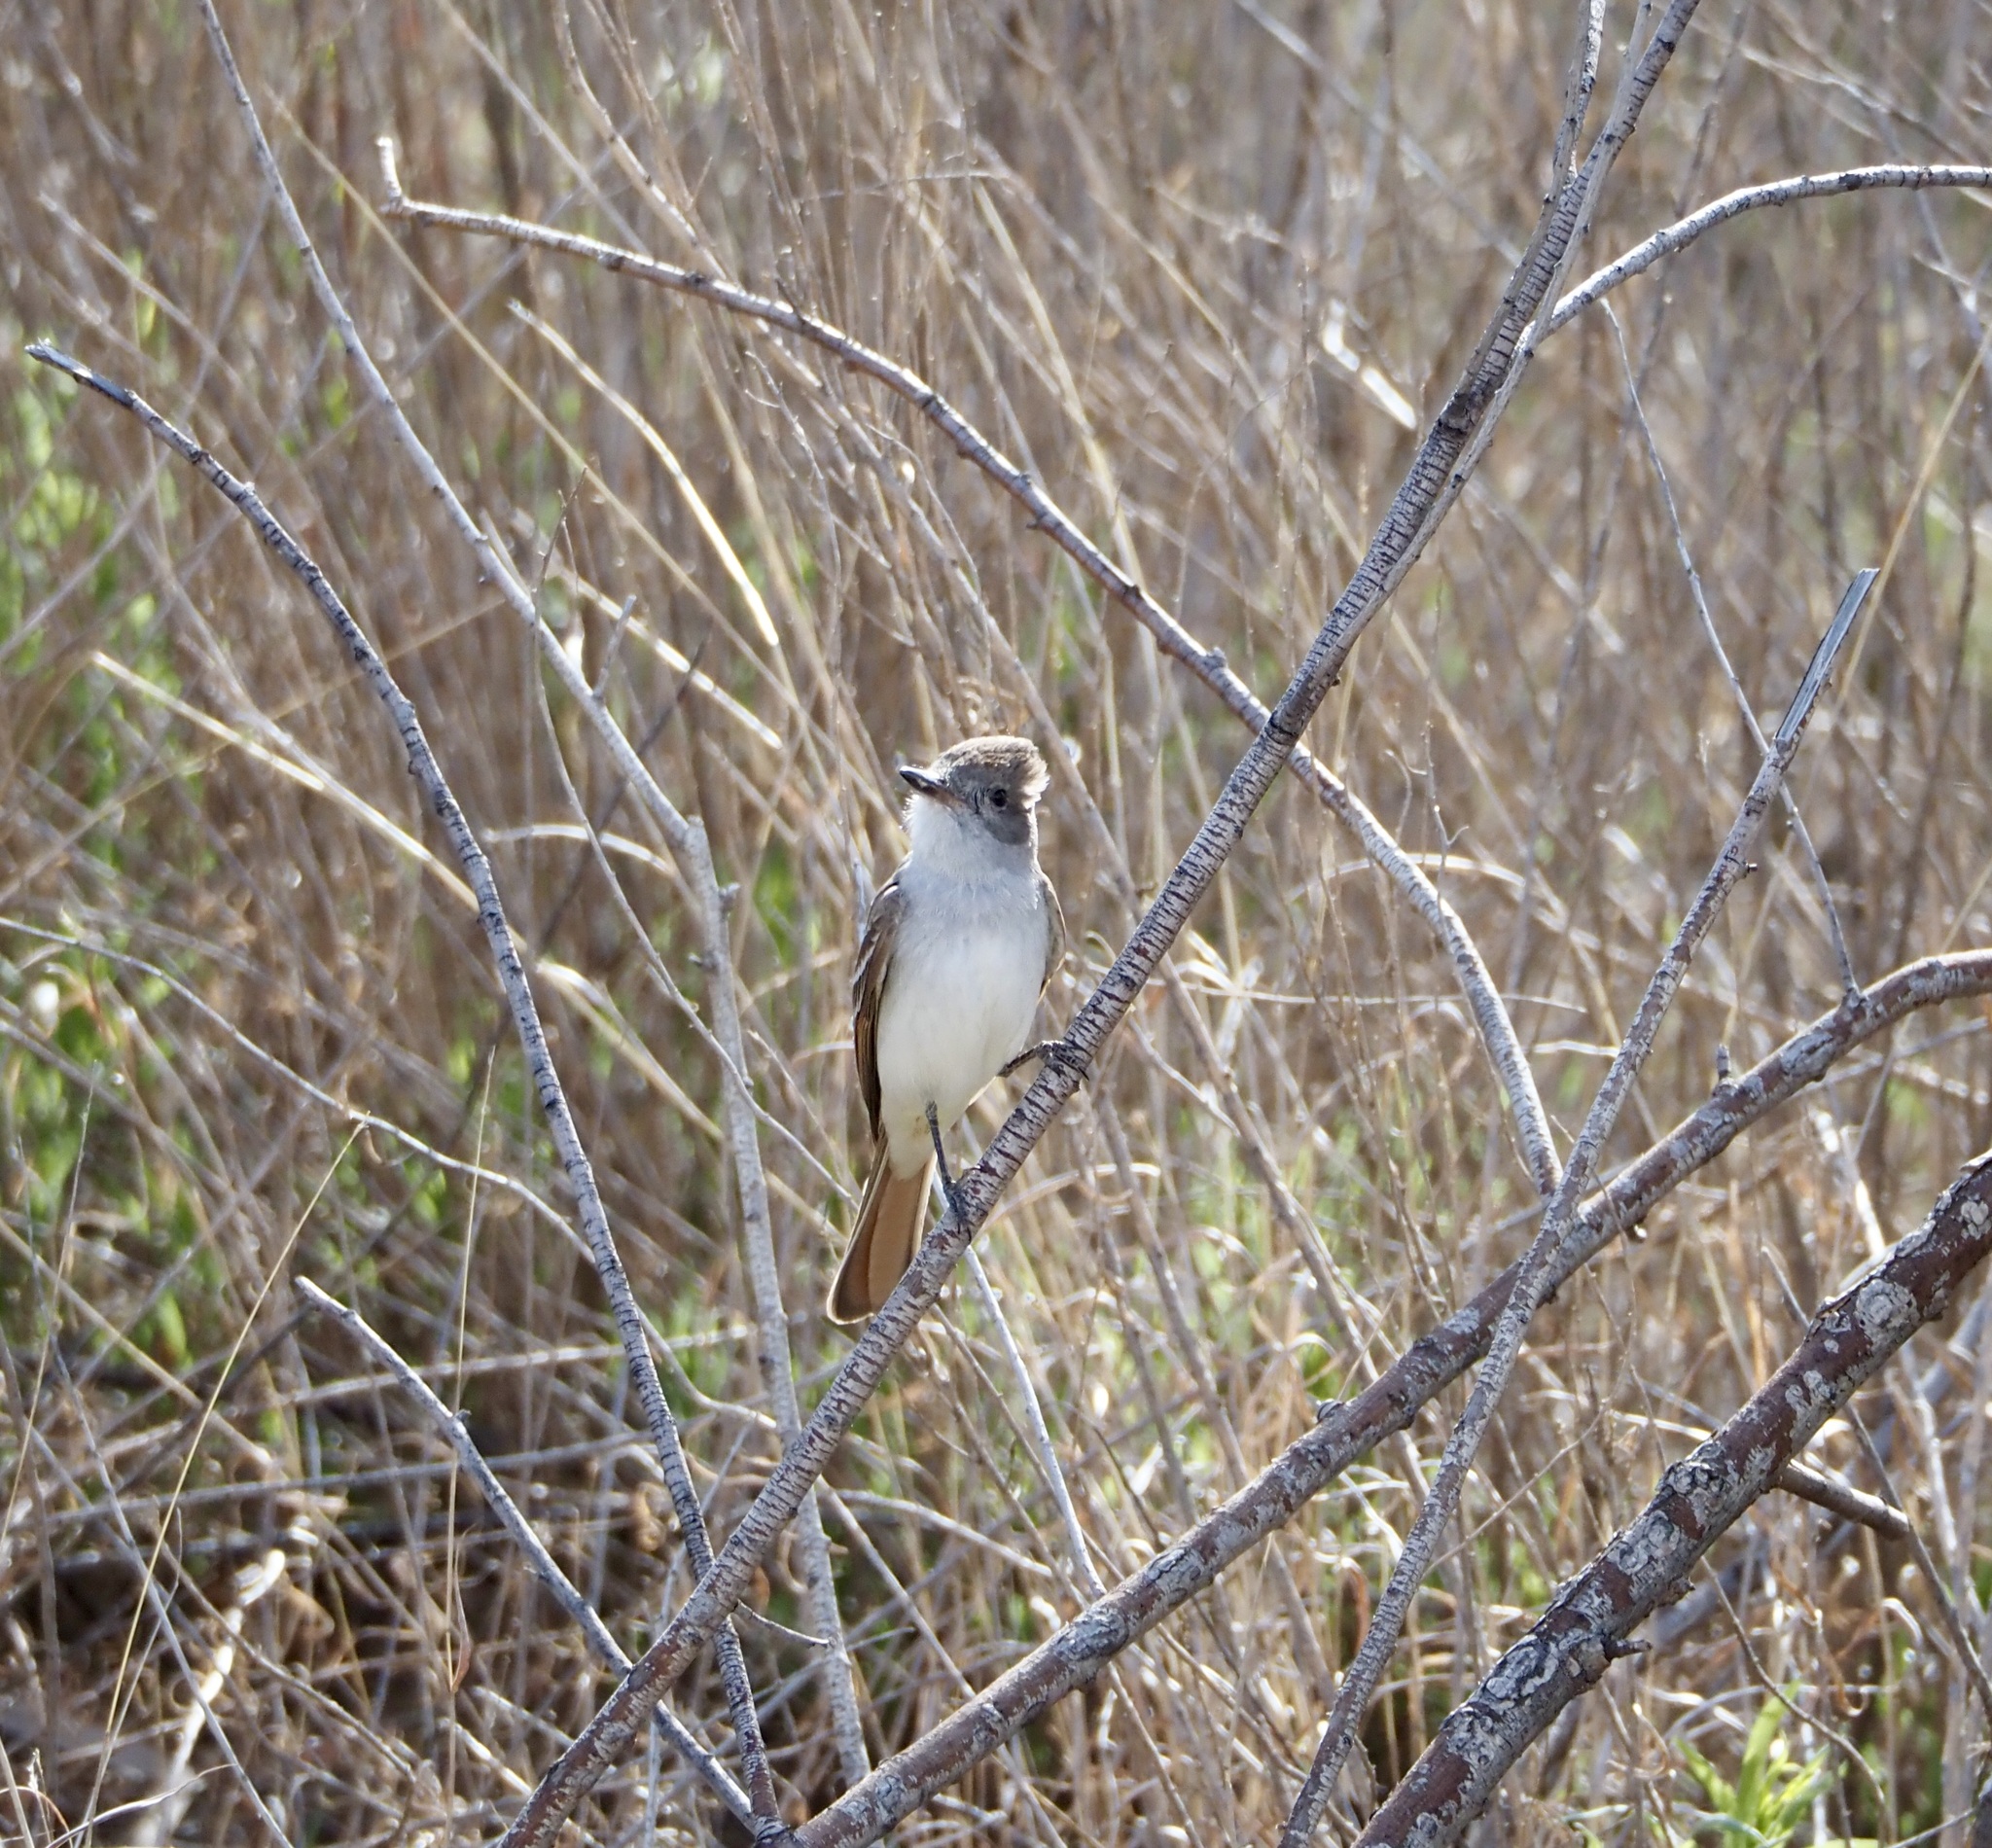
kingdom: Animalia
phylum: Chordata
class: Aves
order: Passeriformes
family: Tyrannidae
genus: Myiarchus
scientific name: Myiarchus cinerascens
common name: Ash-throated flycatcher
